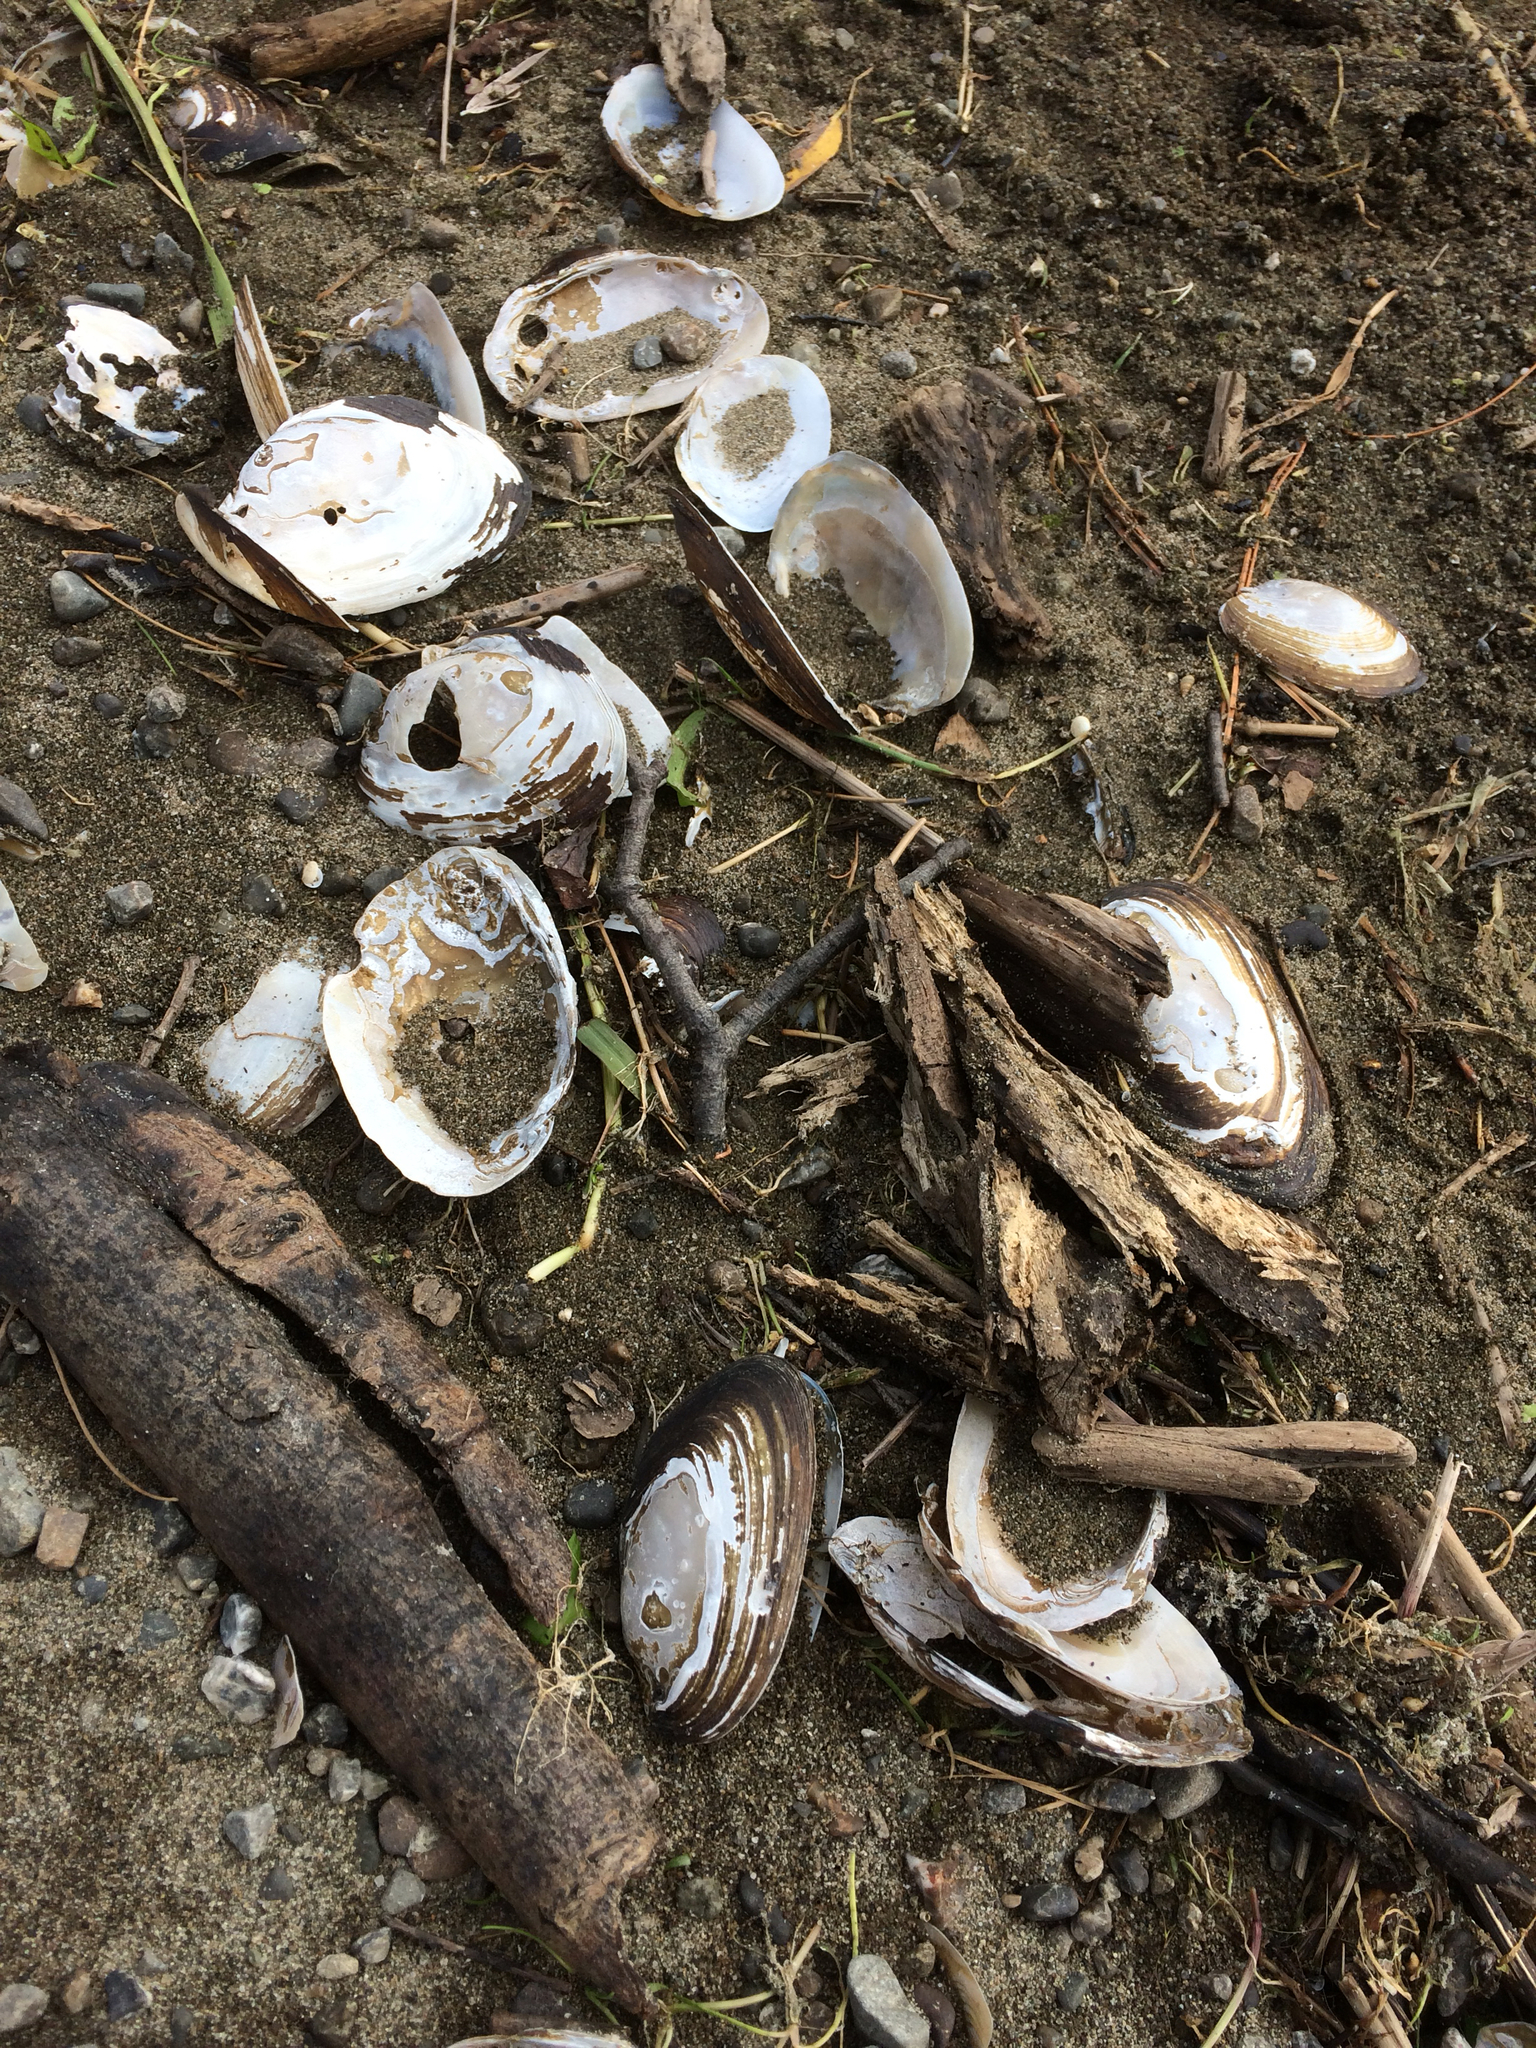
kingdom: Animalia
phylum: Mollusca
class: Bivalvia
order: Unionida
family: Hyriidae
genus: Echyridella
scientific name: Echyridella menziesii
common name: New zealand freshwater mussel
